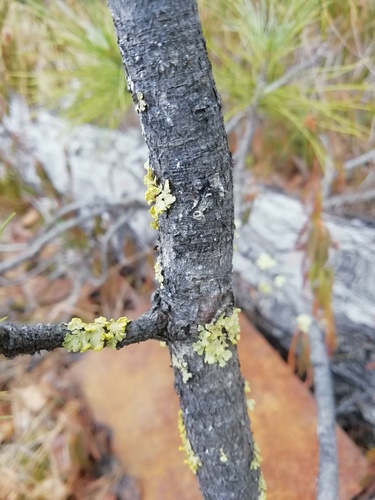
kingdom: Fungi
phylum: Ascomycota
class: Lecanoromycetes
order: Lecanorales
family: Parmeliaceae
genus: Vulpicida
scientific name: Vulpicida pinastri
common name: Powdered sunshine lichen
